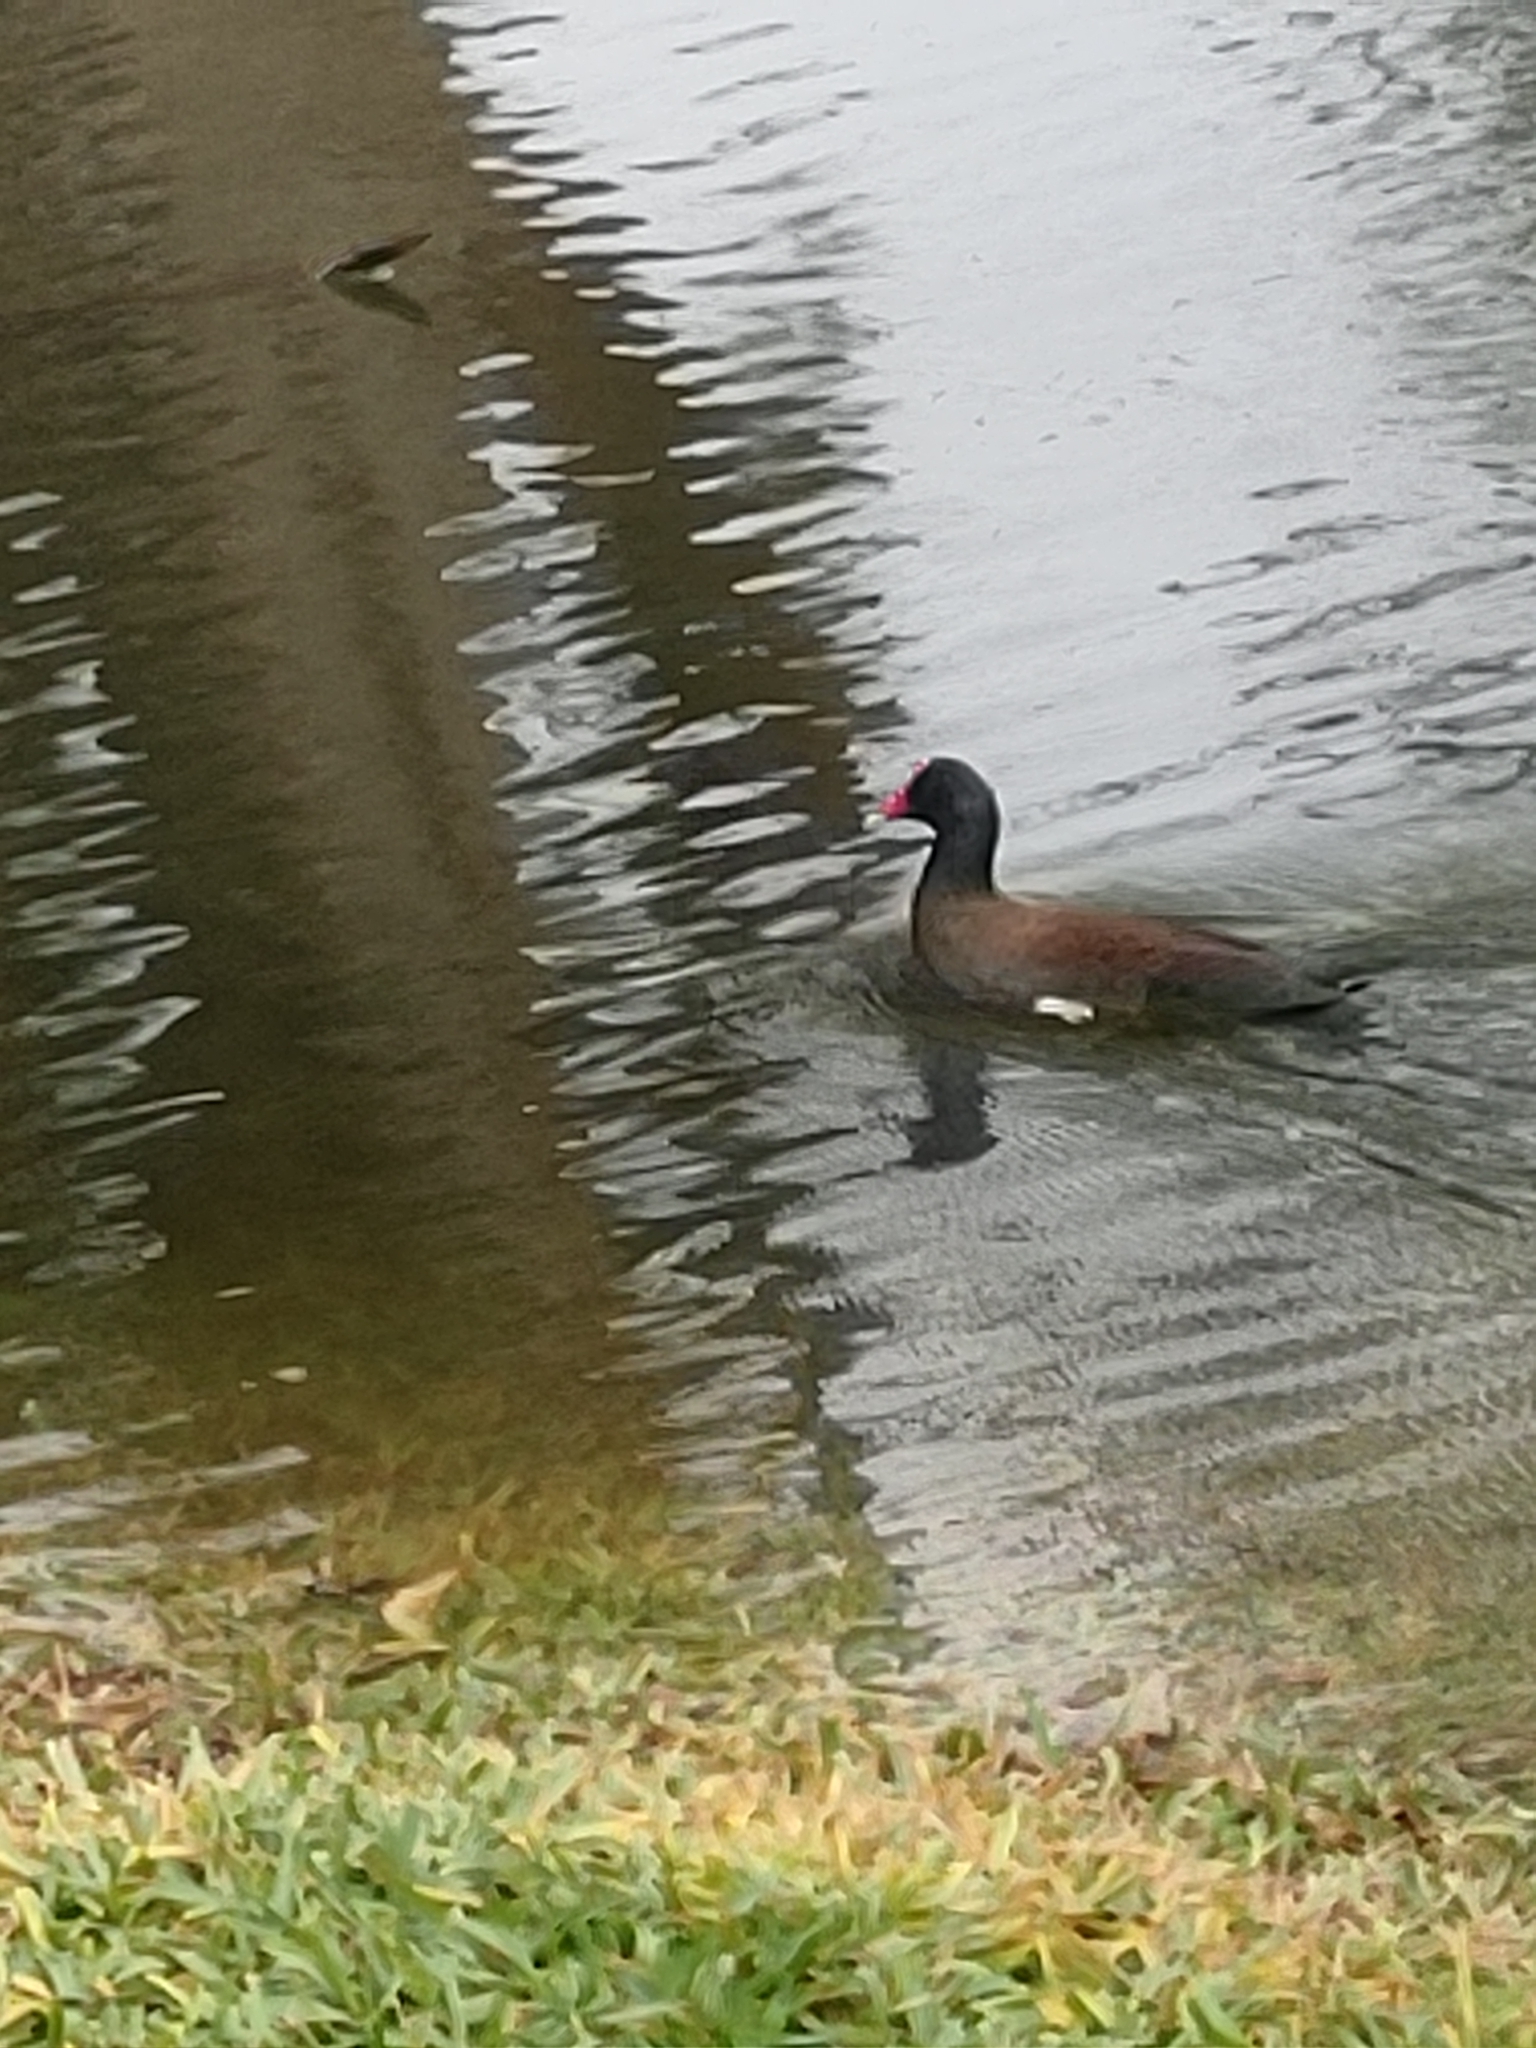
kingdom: Animalia
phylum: Chordata
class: Aves
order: Gruiformes
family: Rallidae
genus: Gallinula
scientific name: Gallinula chloropus
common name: Common moorhen
